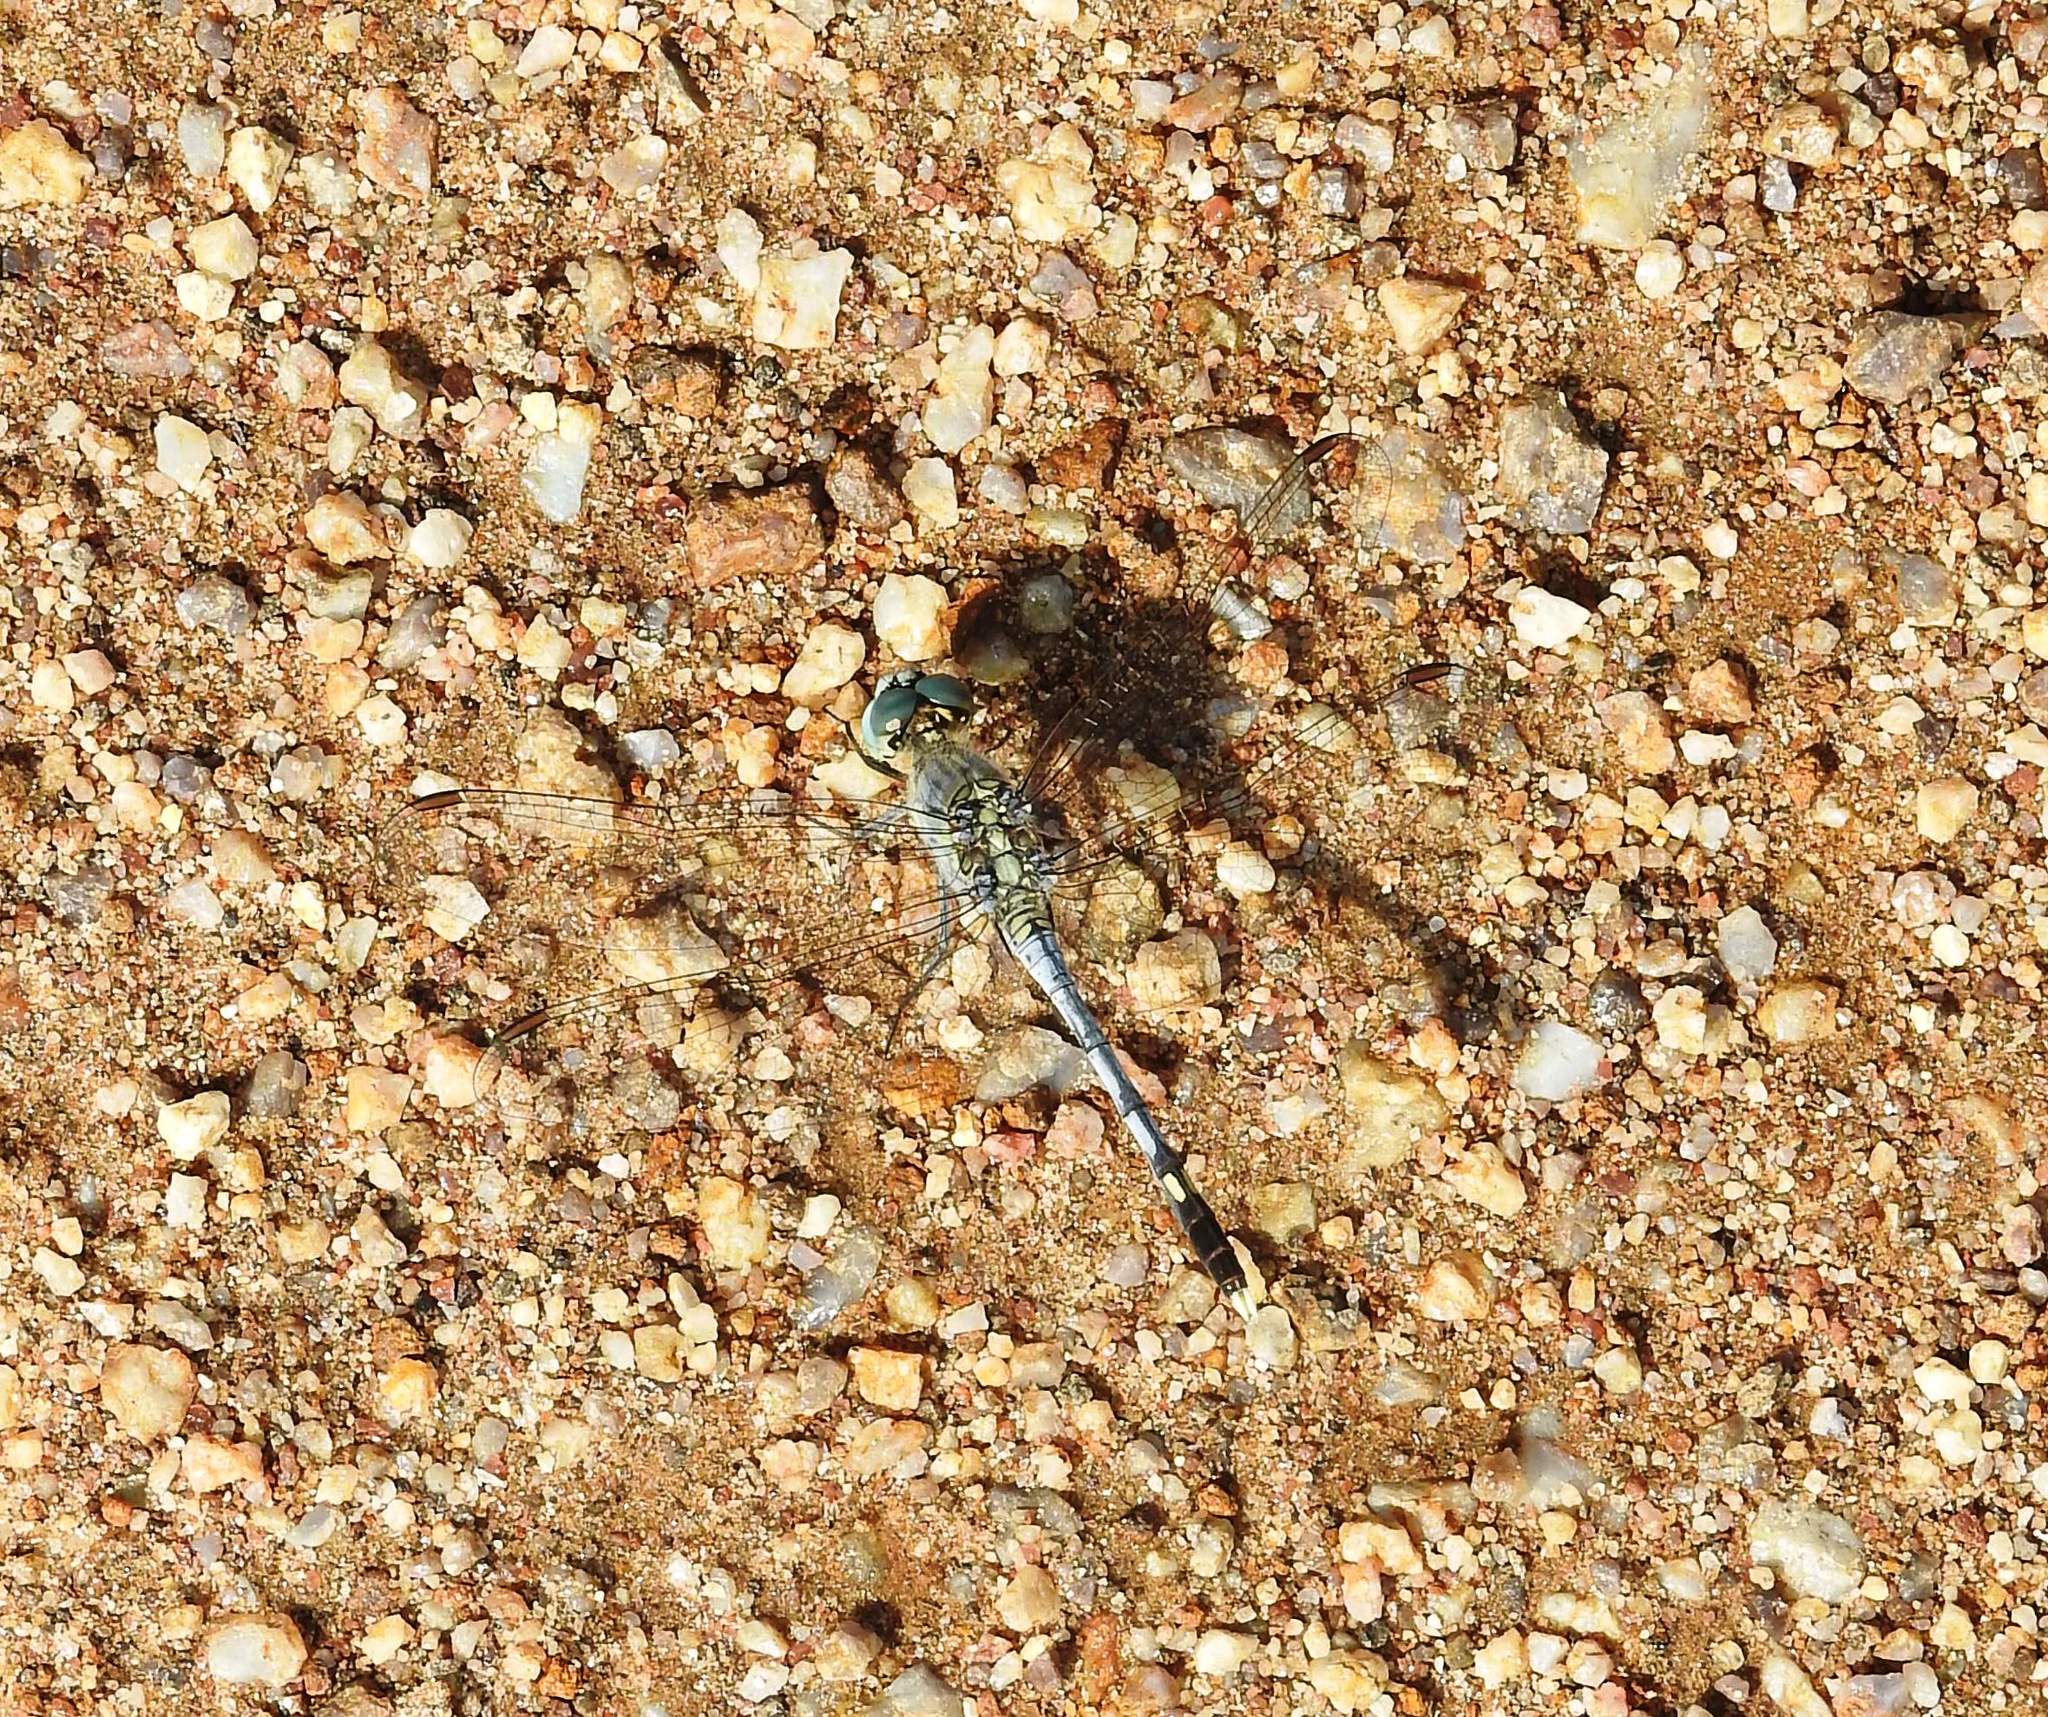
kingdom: Animalia
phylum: Arthropoda
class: Insecta
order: Odonata
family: Libellulidae
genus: Diplacodes
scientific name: Diplacodes trivialis
